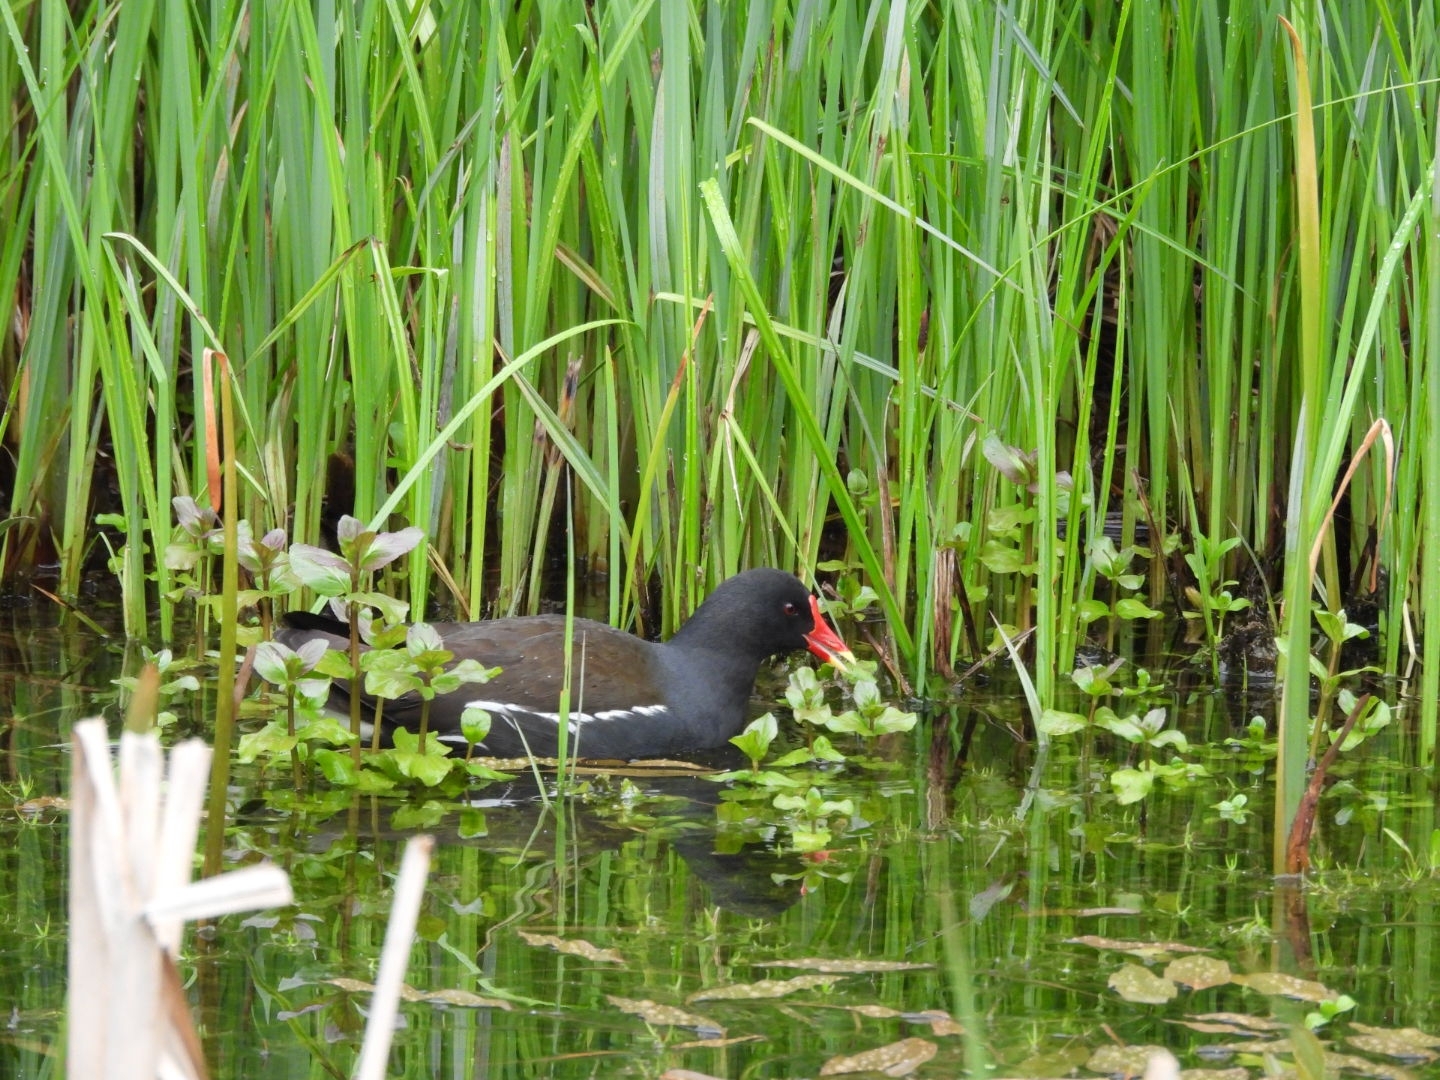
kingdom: Animalia
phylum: Chordata
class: Aves
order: Gruiformes
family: Rallidae
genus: Gallinula
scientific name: Gallinula chloropus
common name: Common moorhen
